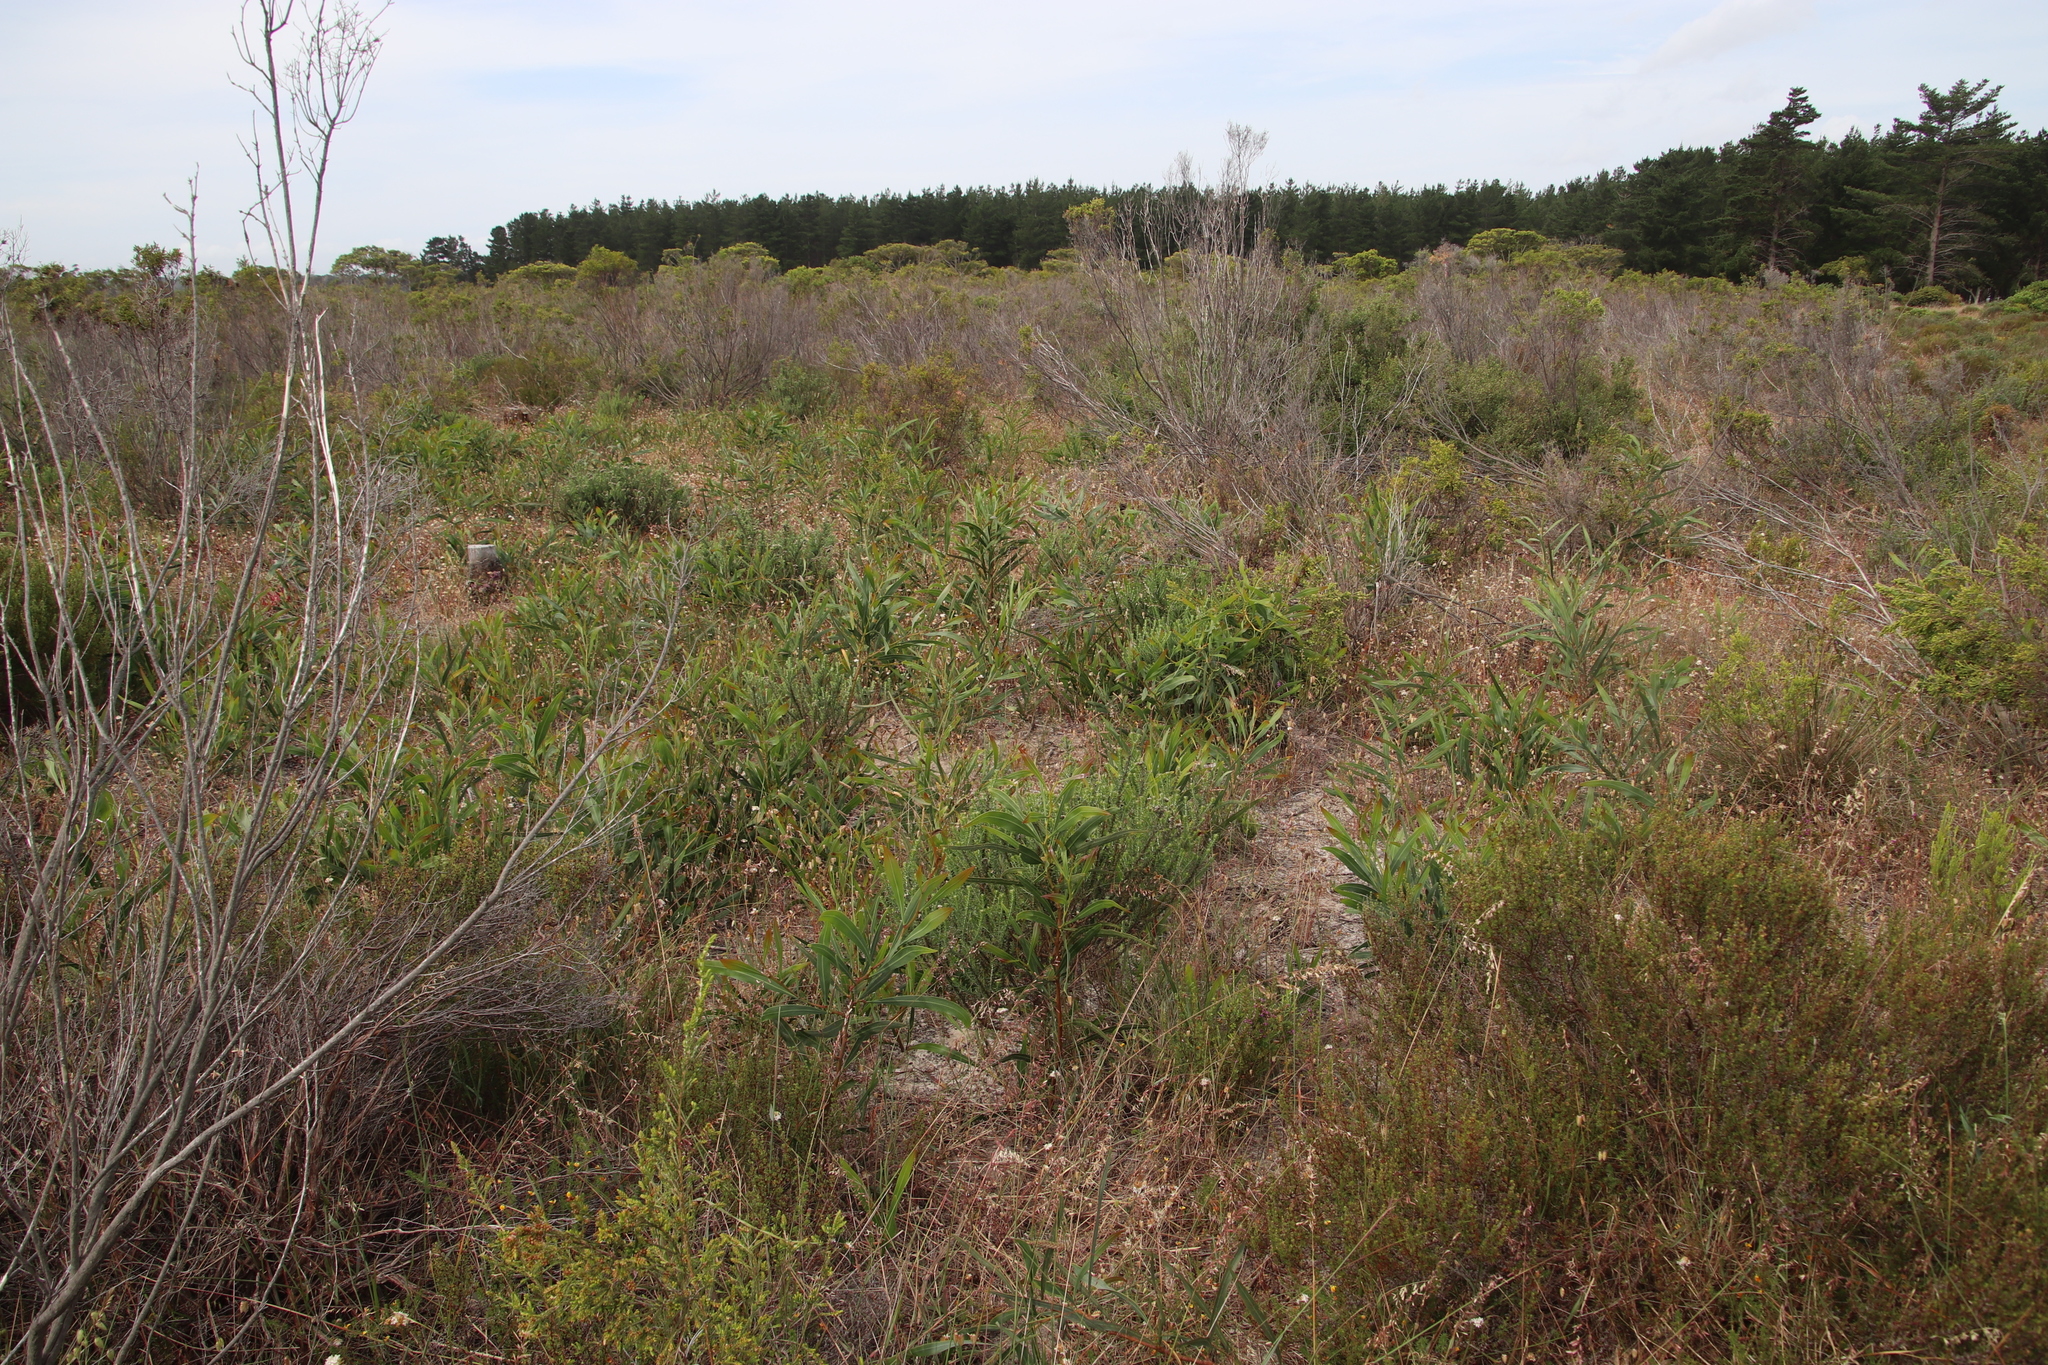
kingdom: Plantae
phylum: Tracheophyta
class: Magnoliopsida
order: Fabales
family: Fabaceae
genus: Acacia
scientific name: Acacia saligna
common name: Orange wattle
